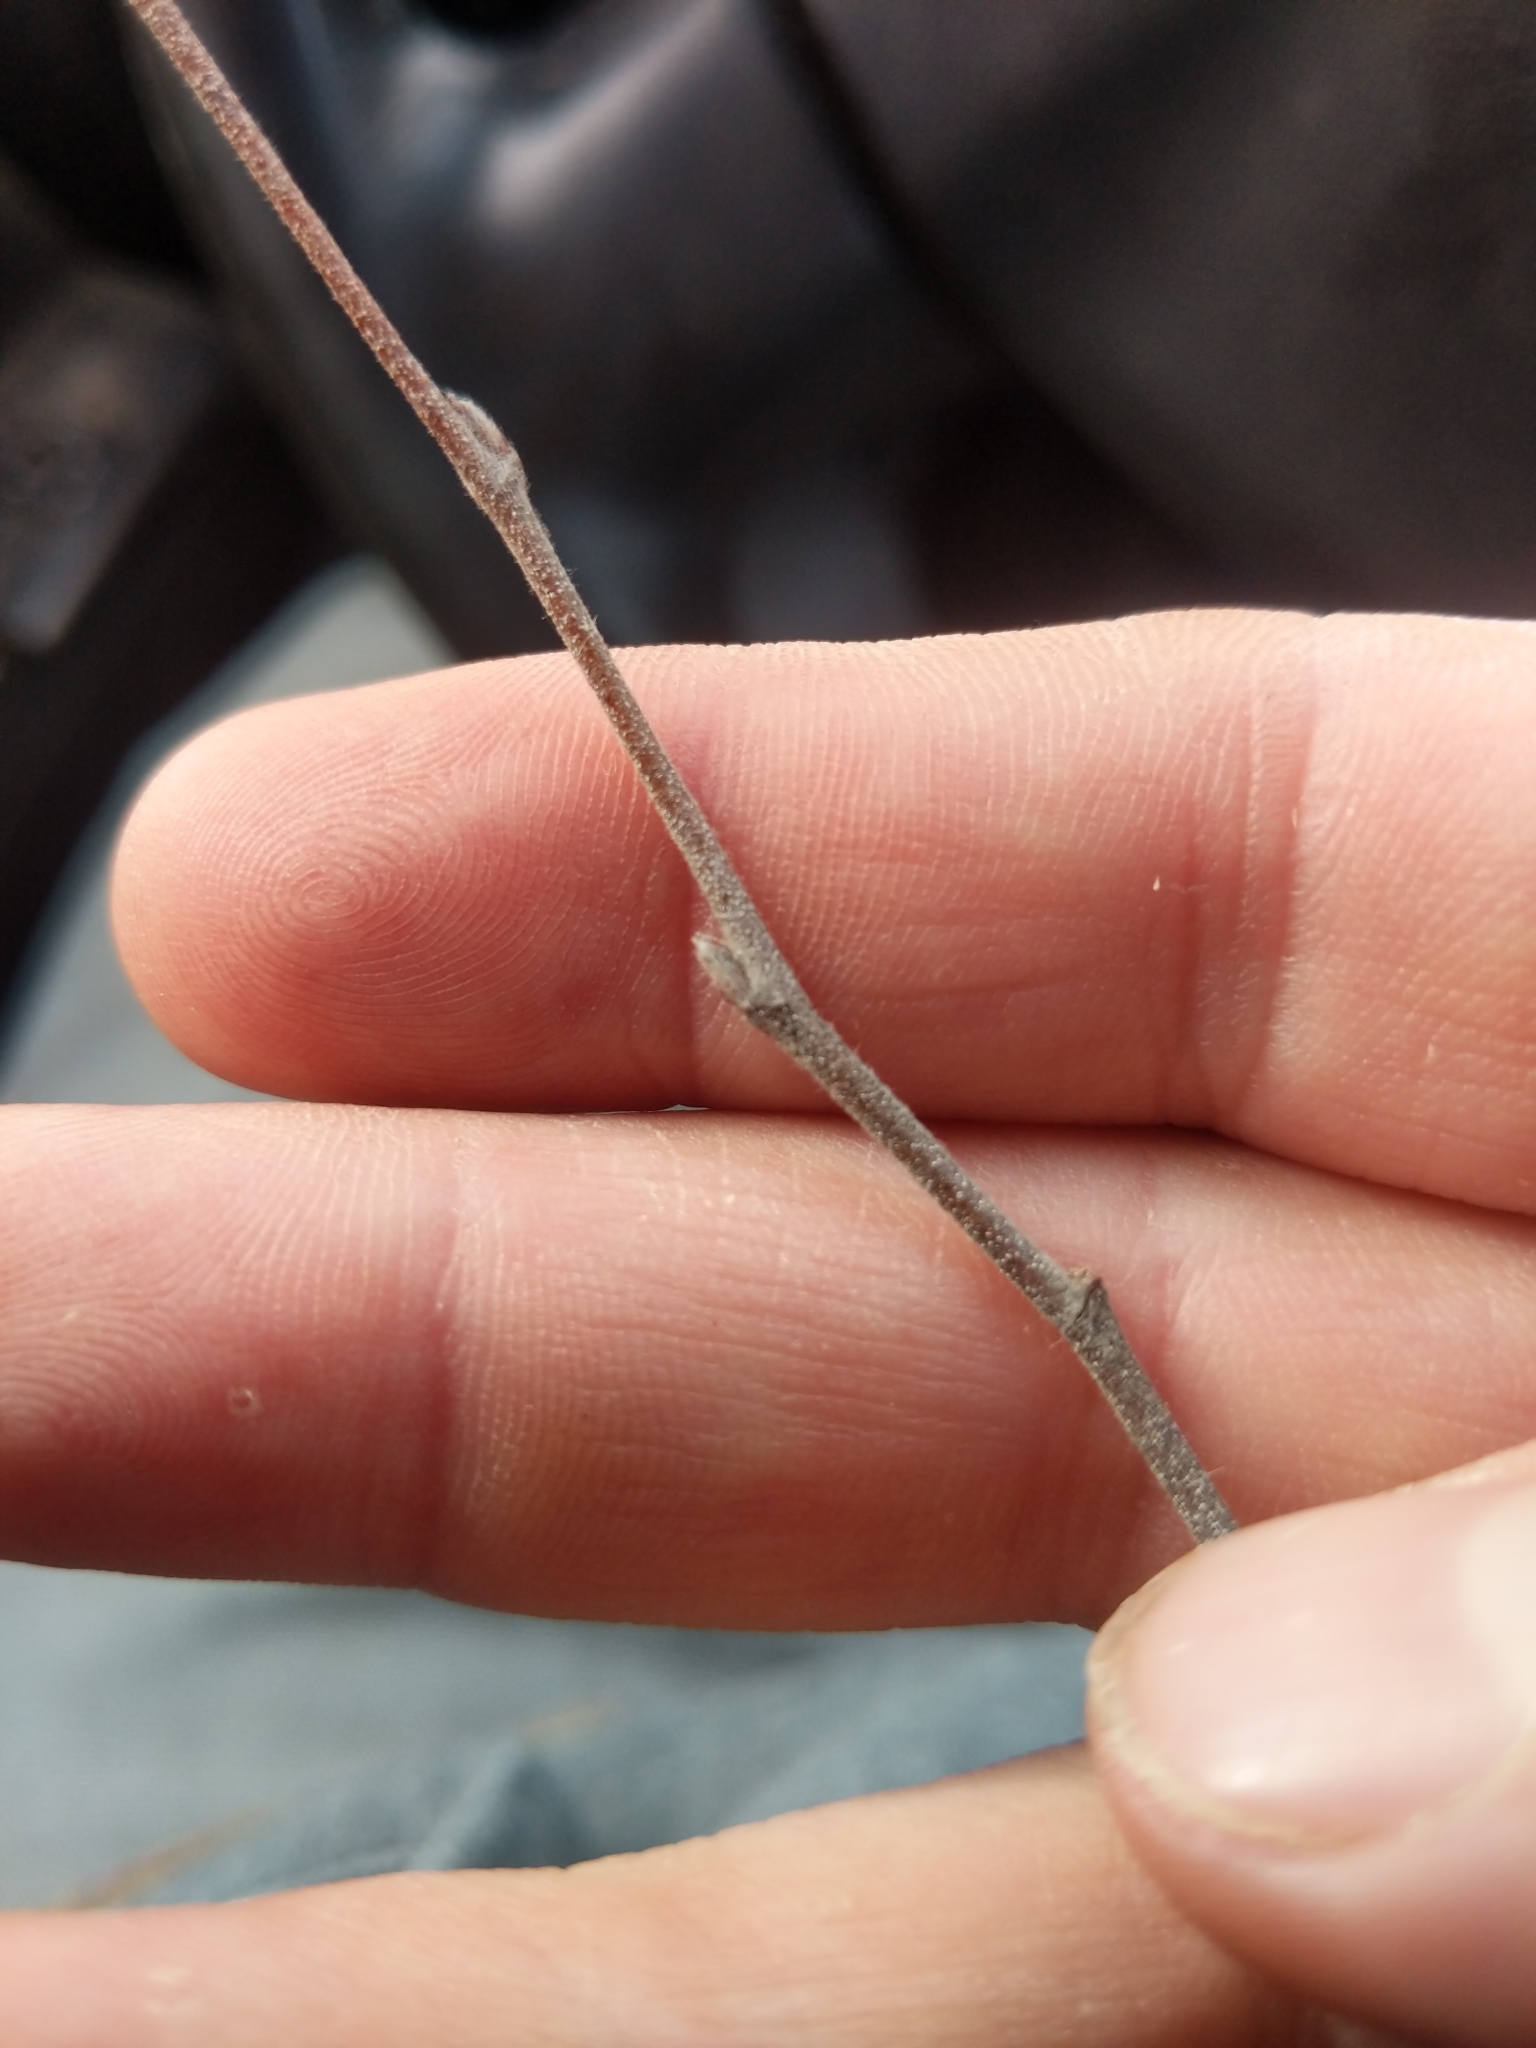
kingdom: Plantae
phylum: Tracheophyta
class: Magnoliopsida
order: Fagales
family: Betulaceae
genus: Betula
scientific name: Betula nigra
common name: Black birch
